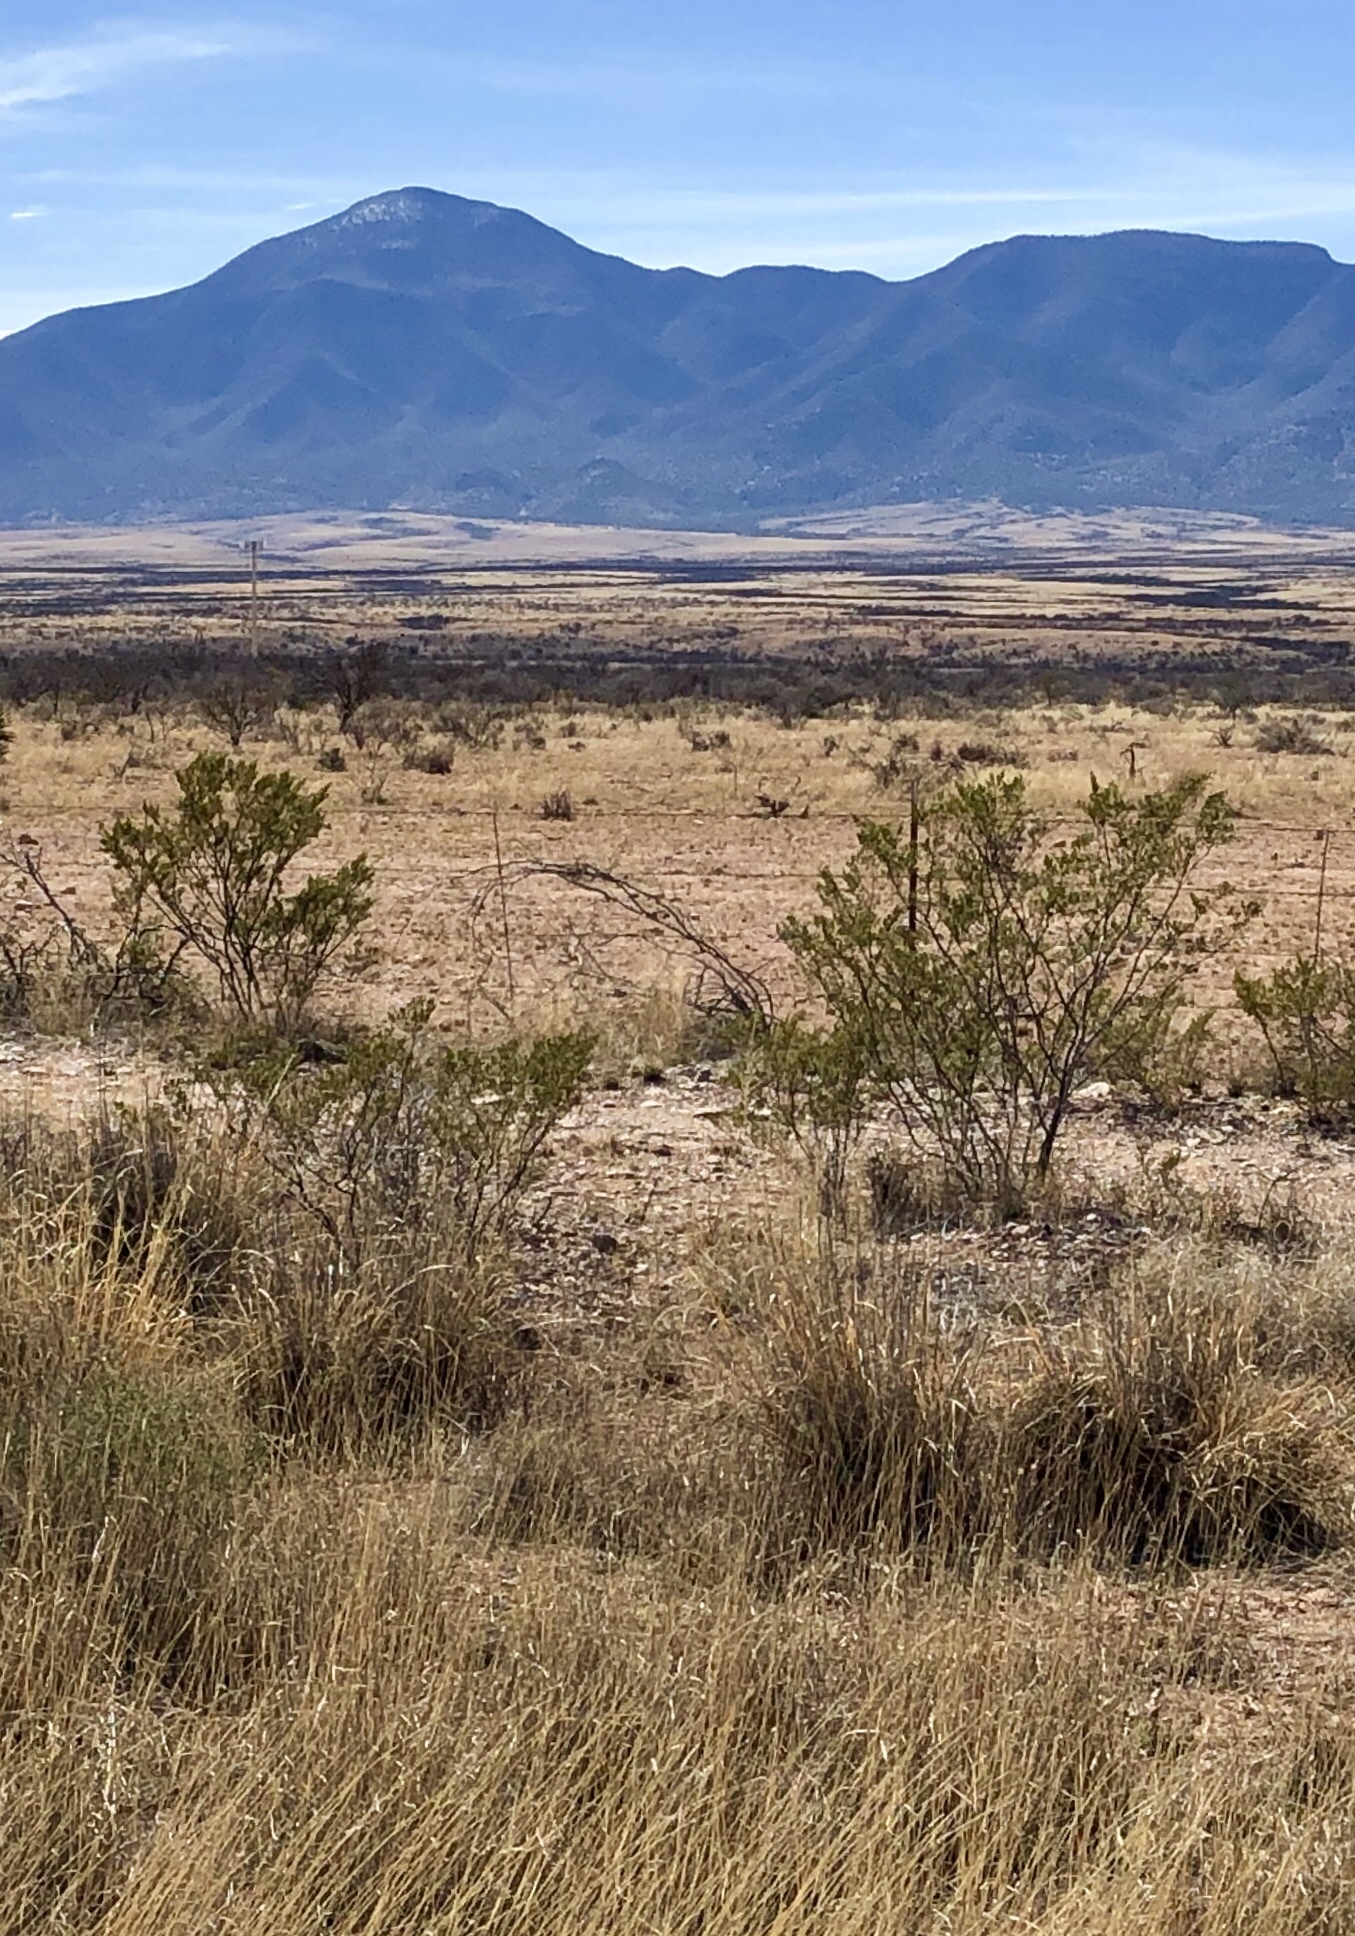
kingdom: Plantae
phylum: Tracheophyta
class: Magnoliopsida
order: Zygophyllales
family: Zygophyllaceae
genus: Larrea
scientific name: Larrea tridentata
